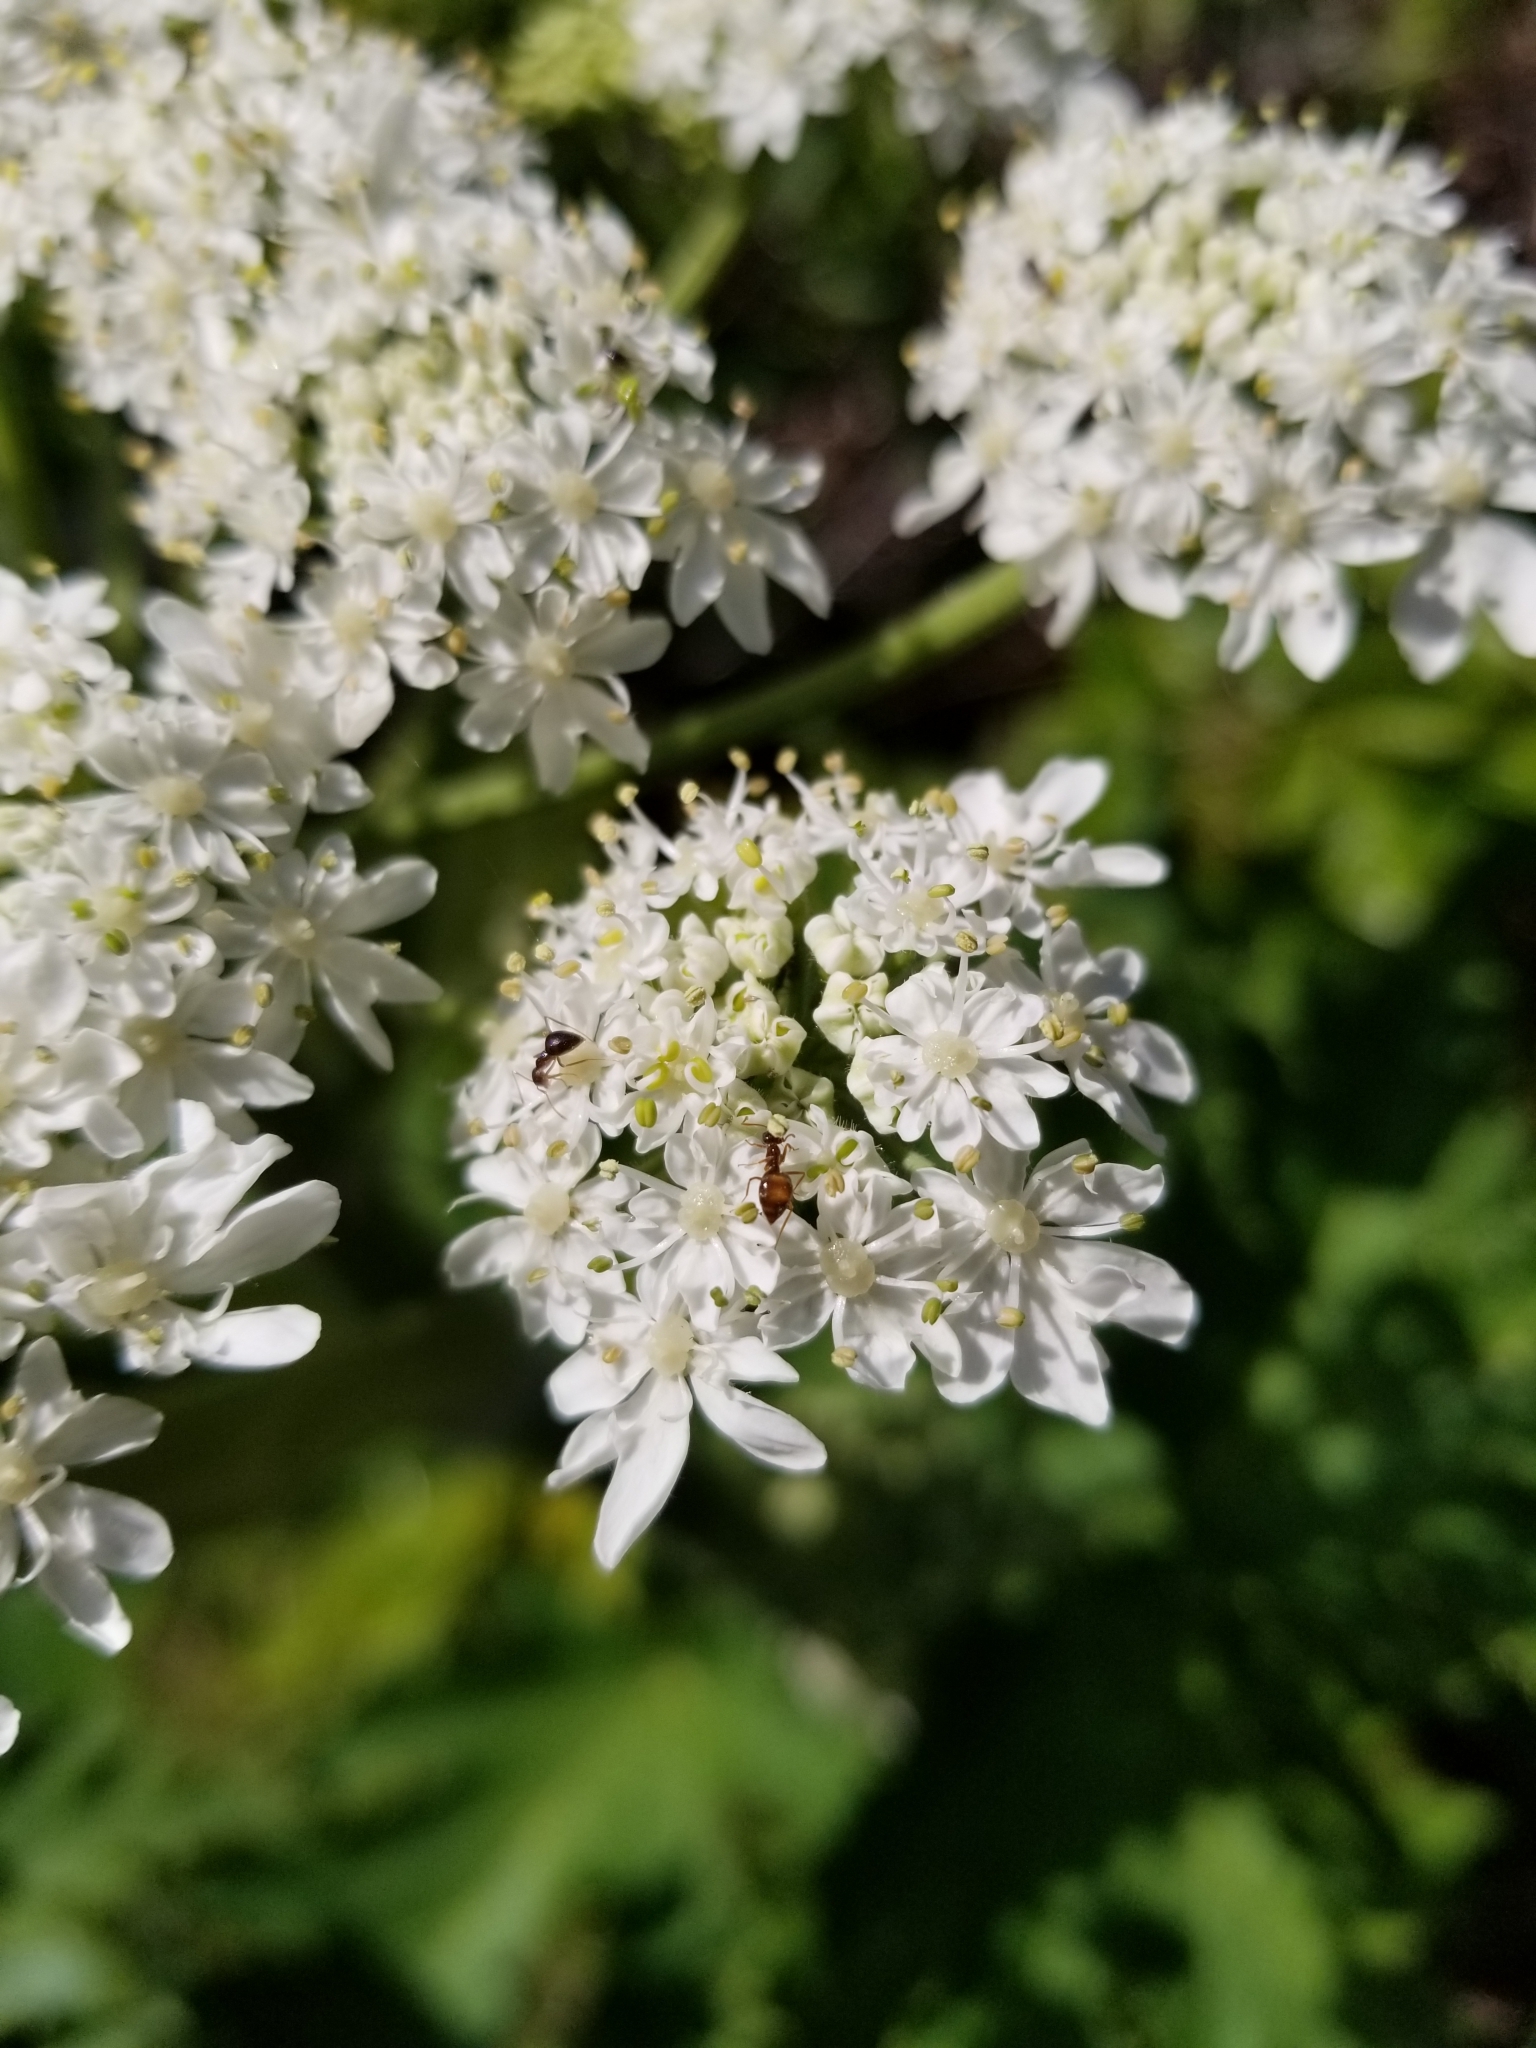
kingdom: Plantae
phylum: Tracheophyta
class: Magnoliopsida
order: Apiales
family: Apiaceae
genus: Heracleum
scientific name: Heracleum maximum
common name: American cow parsnip
